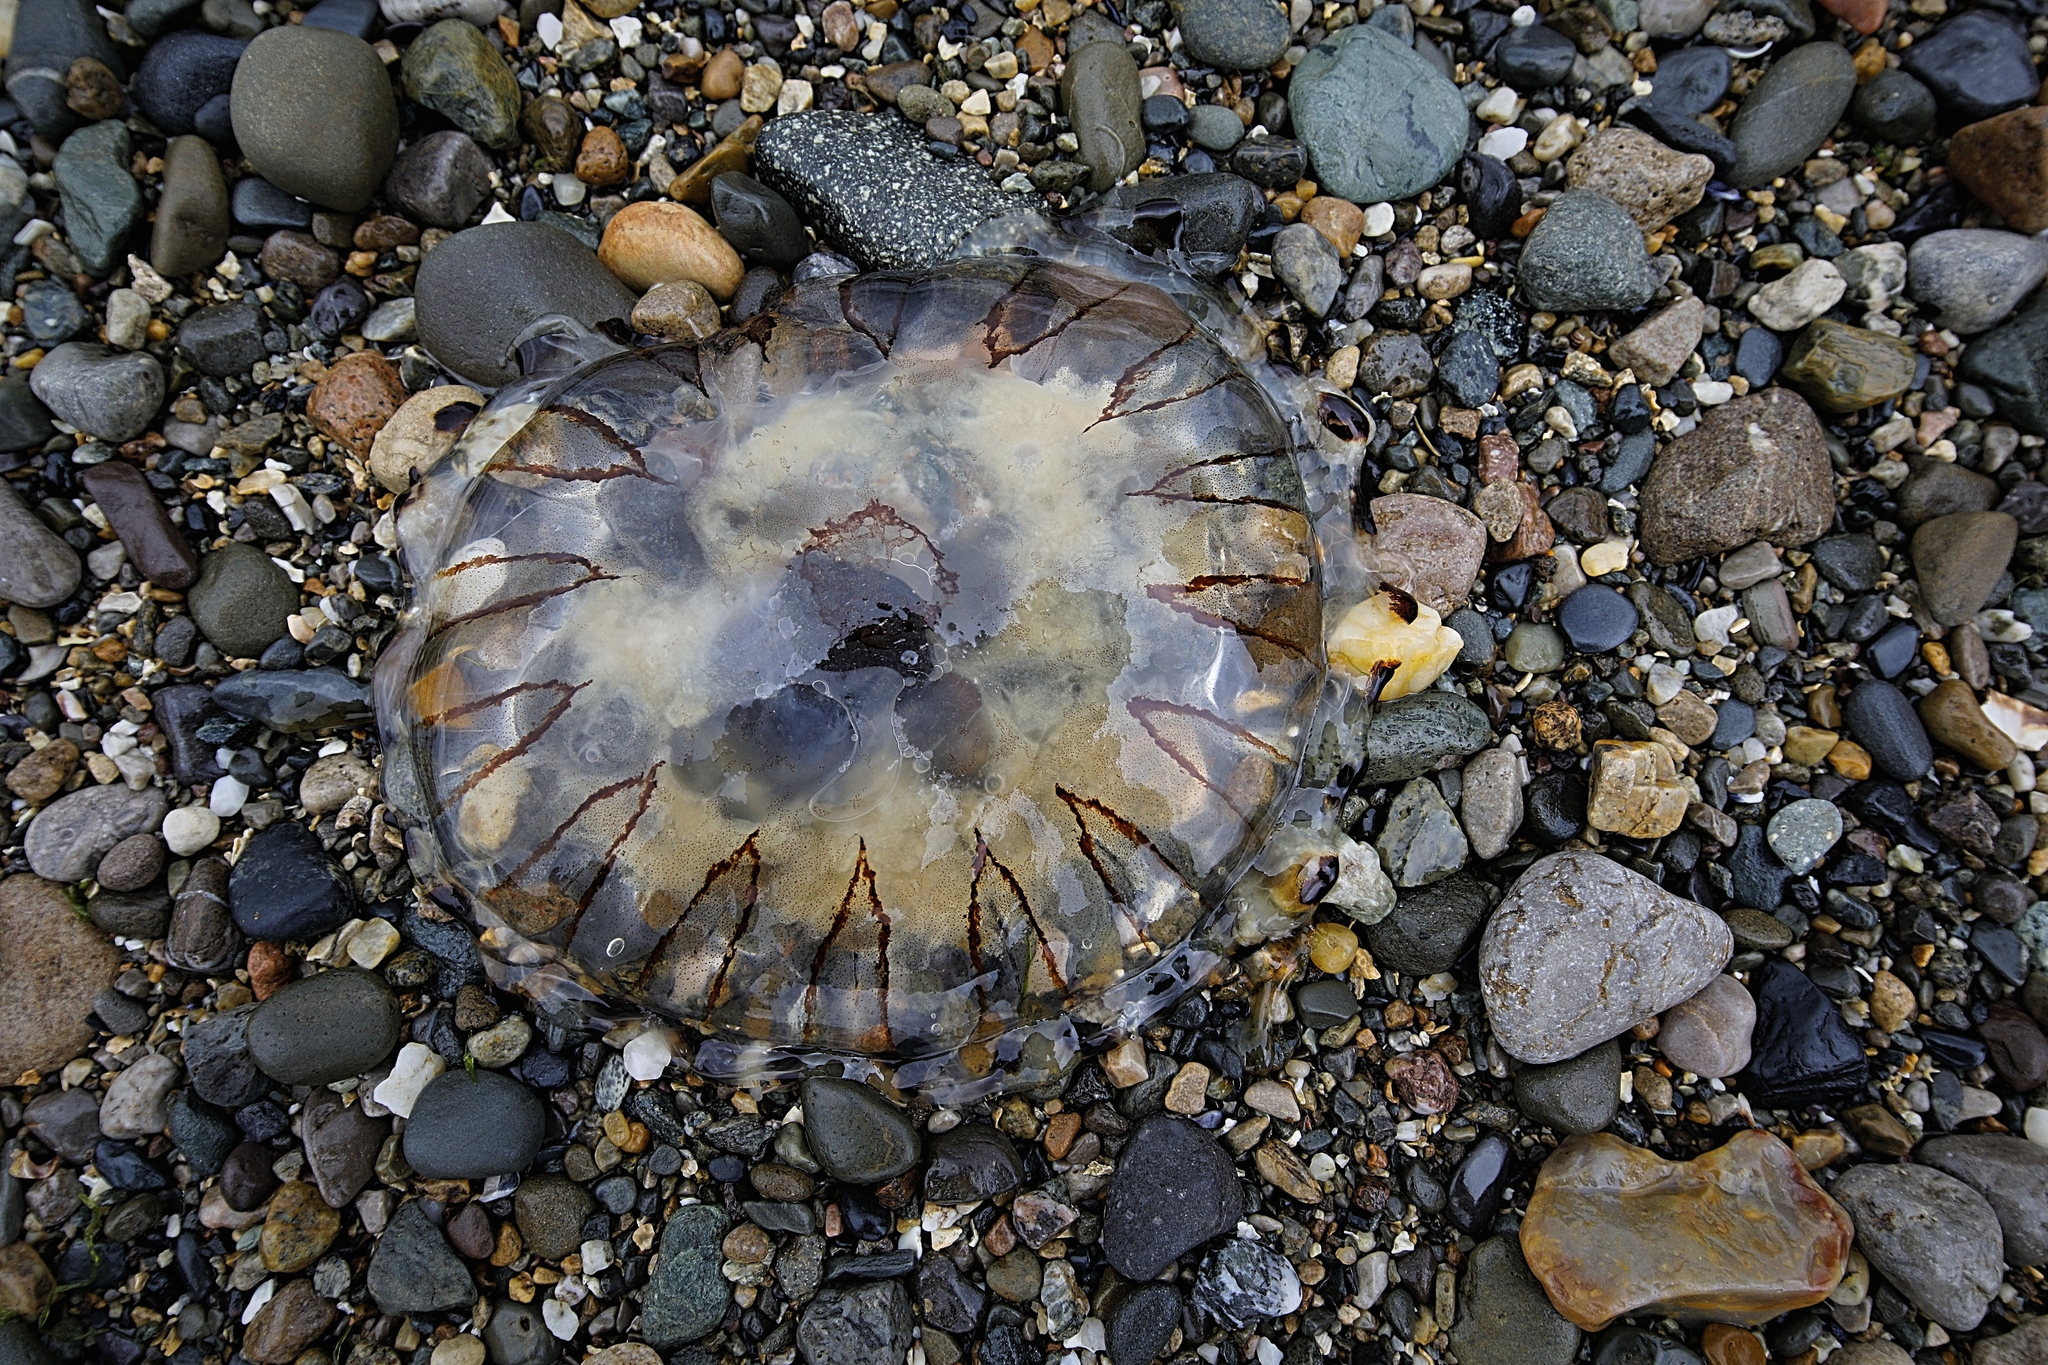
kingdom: Animalia
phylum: Cnidaria
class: Scyphozoa
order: Semaeostomeae
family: Pelagiidae
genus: Chrysaora
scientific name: Chrysaora hysoscella
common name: Compass jellyfish
